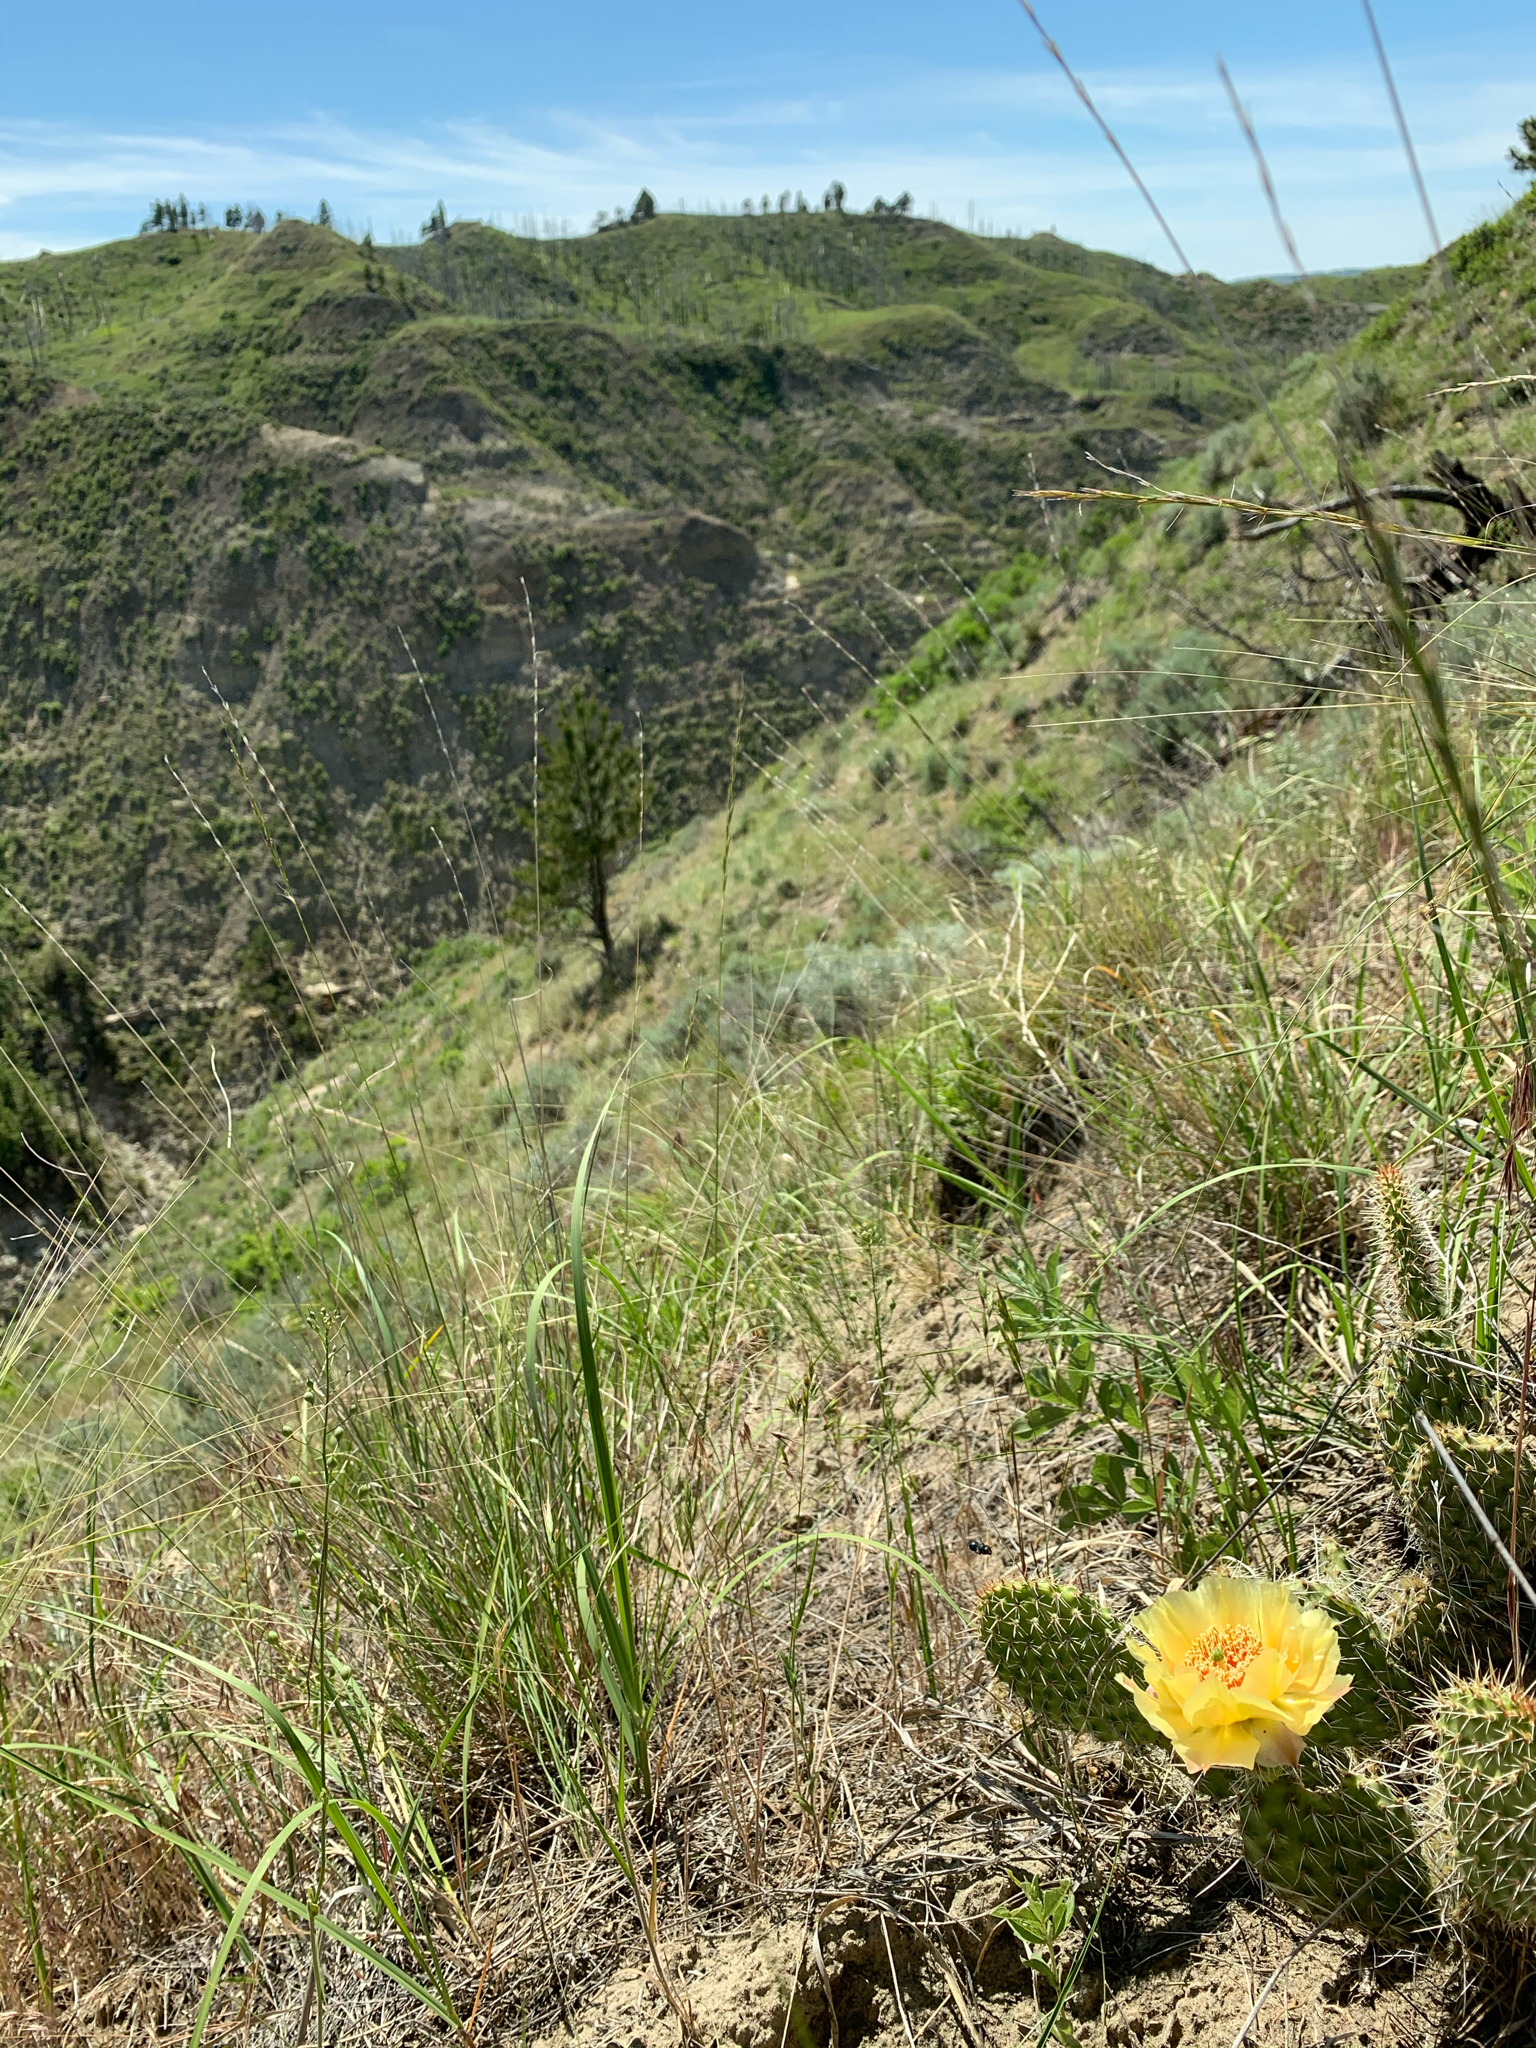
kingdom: Plantae
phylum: Tracheophyta
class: Magnoliopsida
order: Caryophyllales
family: Cactaceae
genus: Opuntia
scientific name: Opuntia polyacantha
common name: Plains prickly-pear
